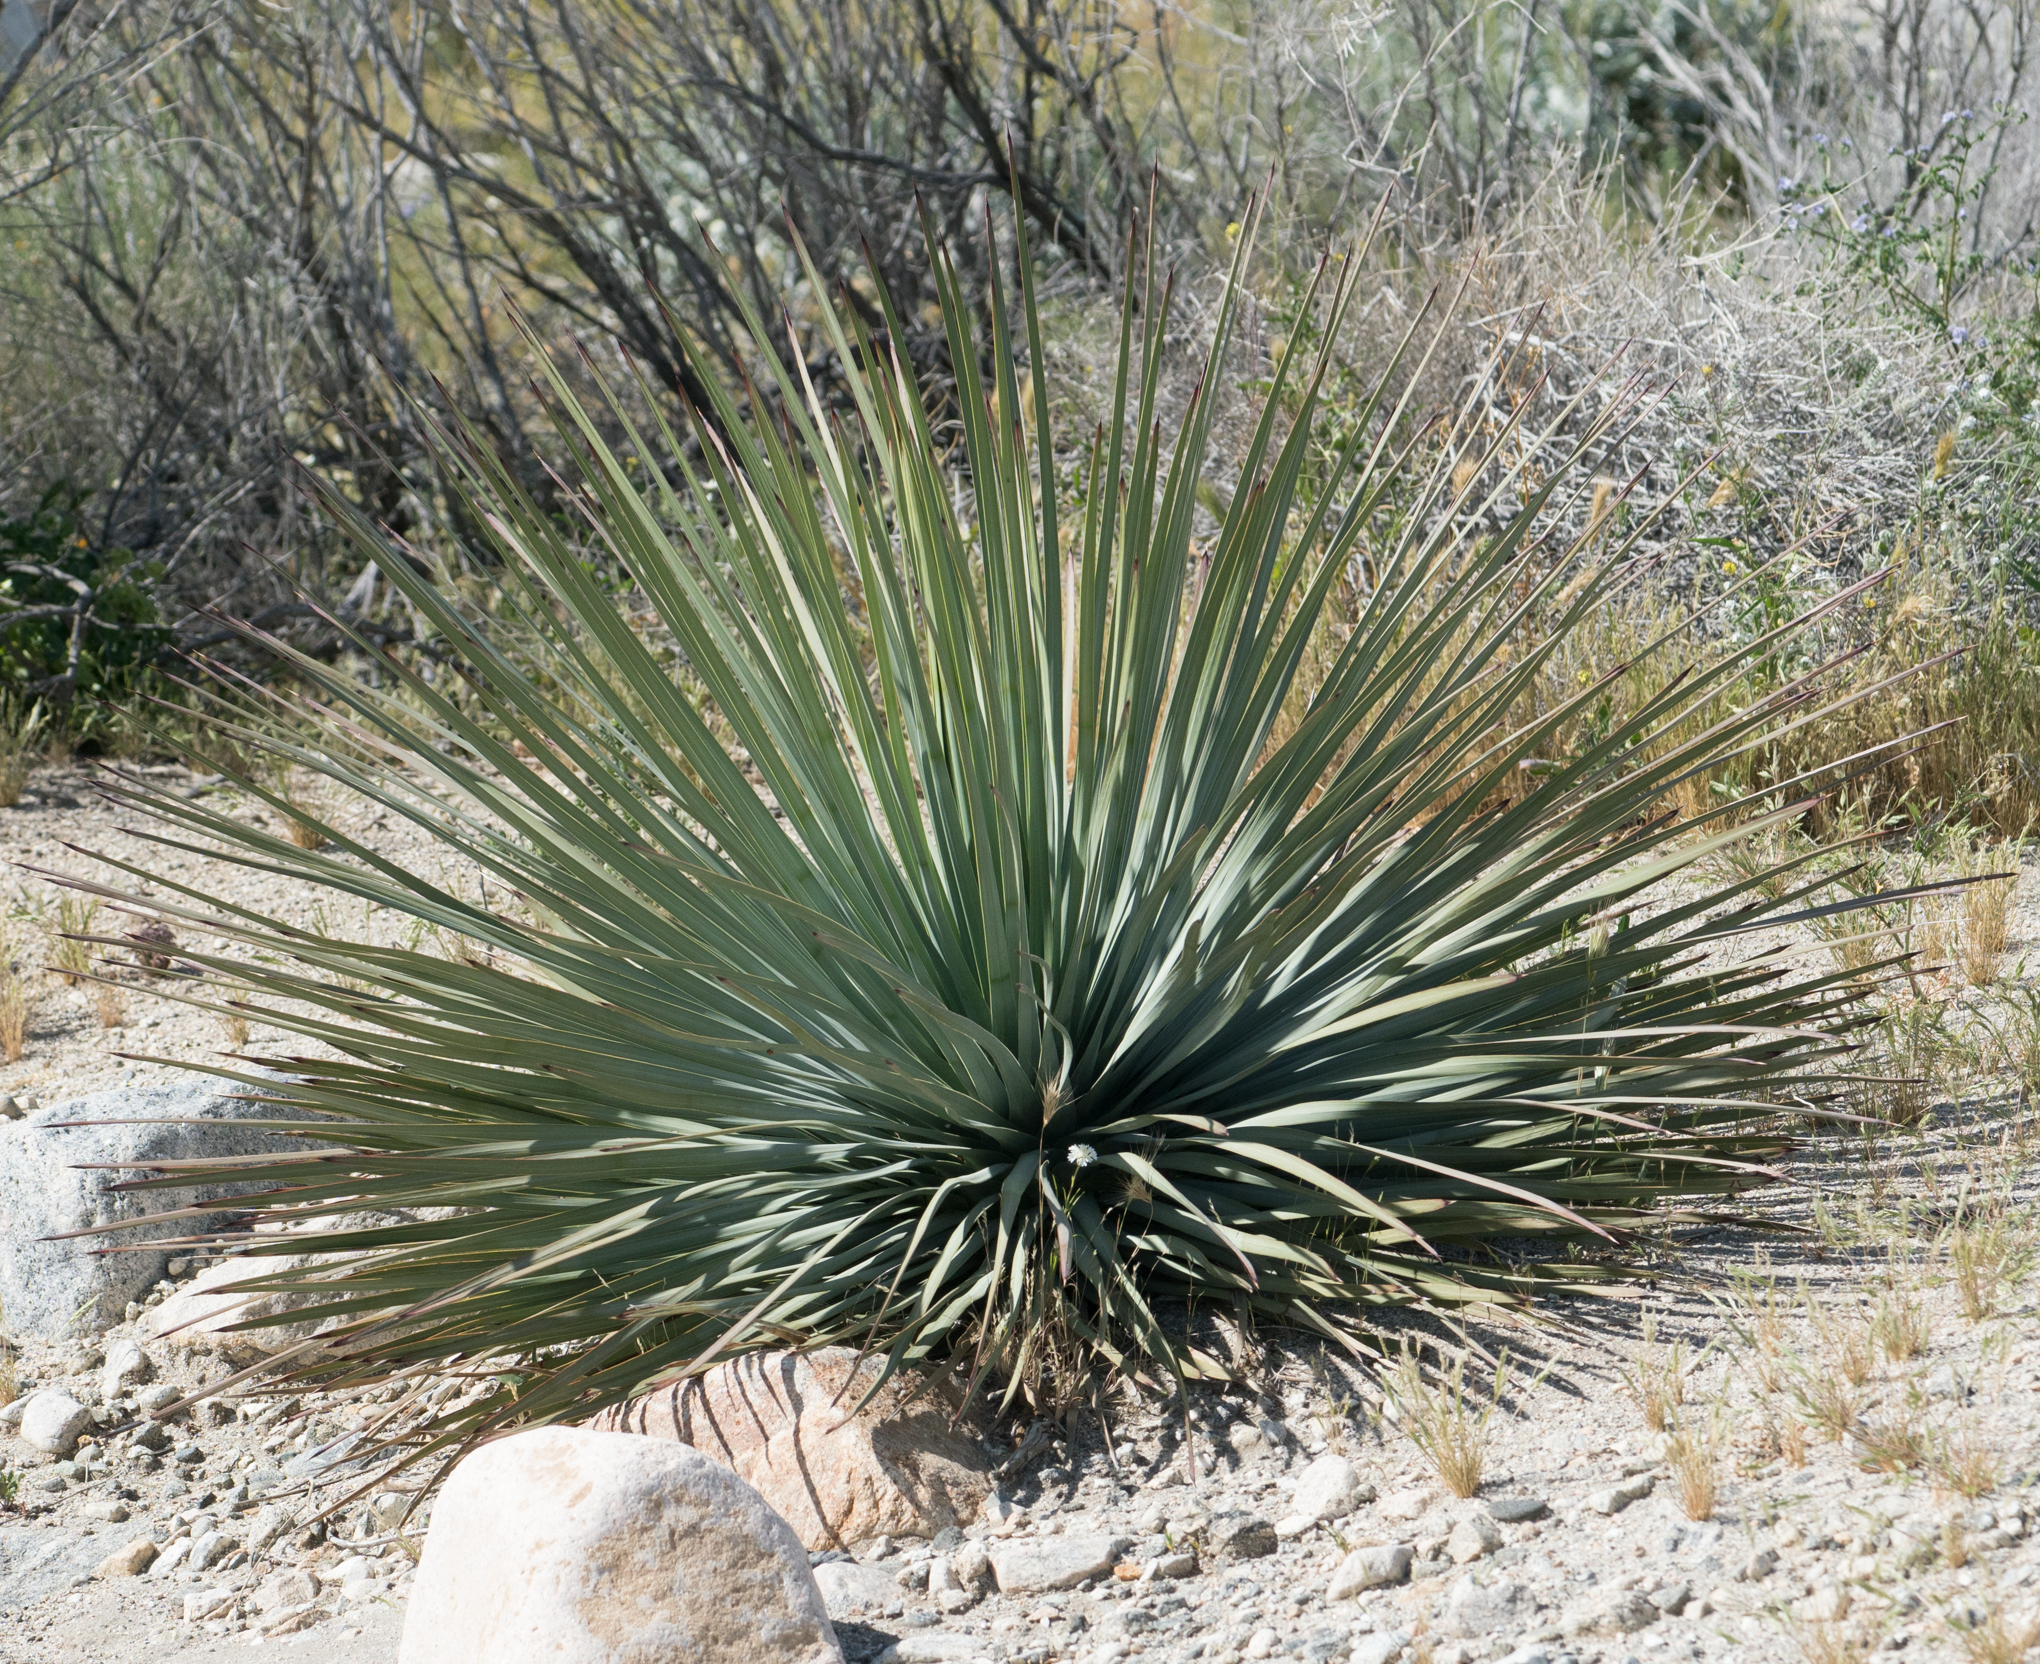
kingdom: Plantae
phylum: Tracheophyta
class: Liliopsida
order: Asparagales
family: Asparagaceae
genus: Hesperoyucca
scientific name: Hesperoyucca whipplei
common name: Our lord's-candle
